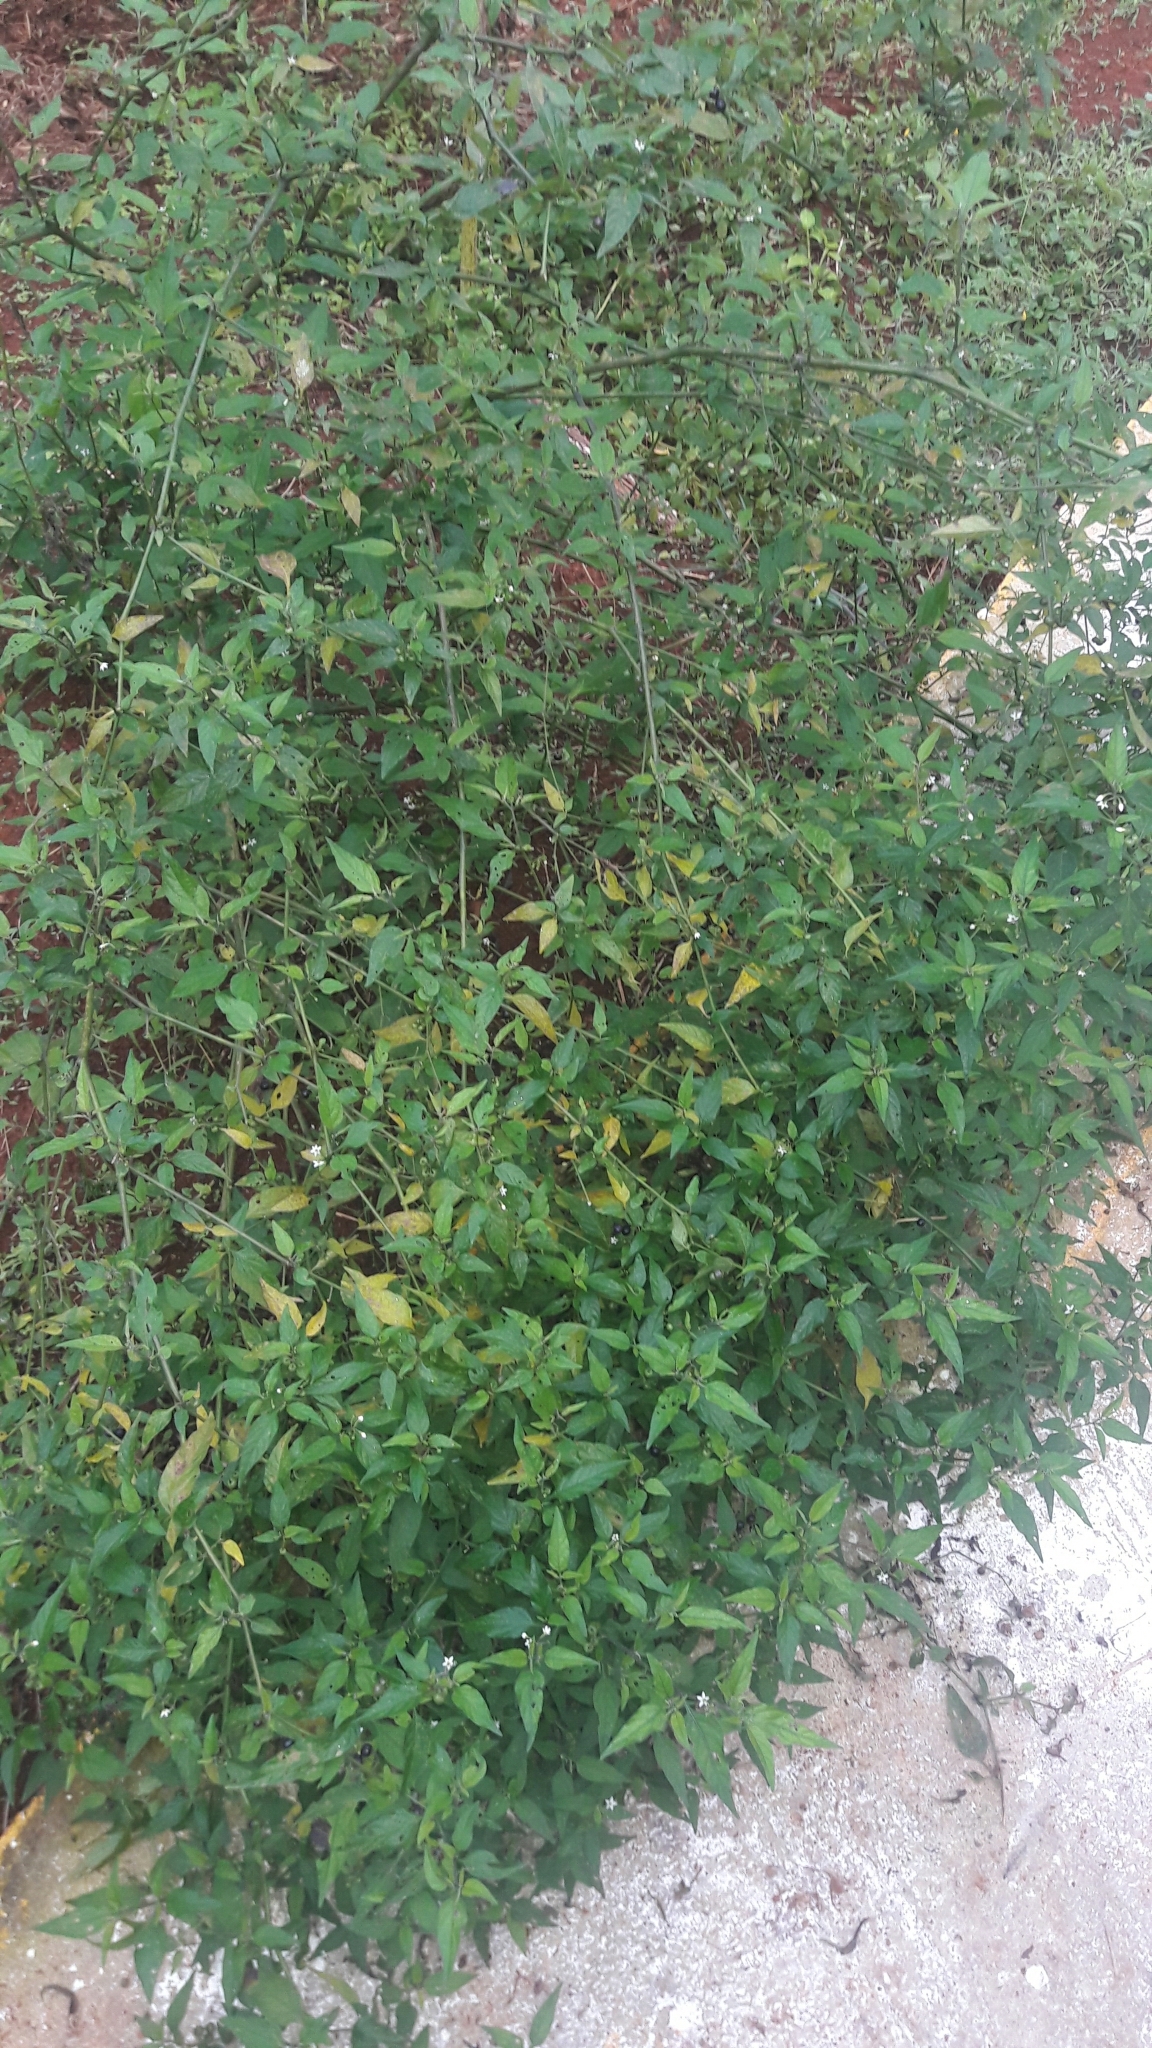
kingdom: Plantae
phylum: Tracheophyta
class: Magnoliopsida
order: Solanales
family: Solanaceae
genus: Solanum
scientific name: Solanum americanum
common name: American black nightshade
